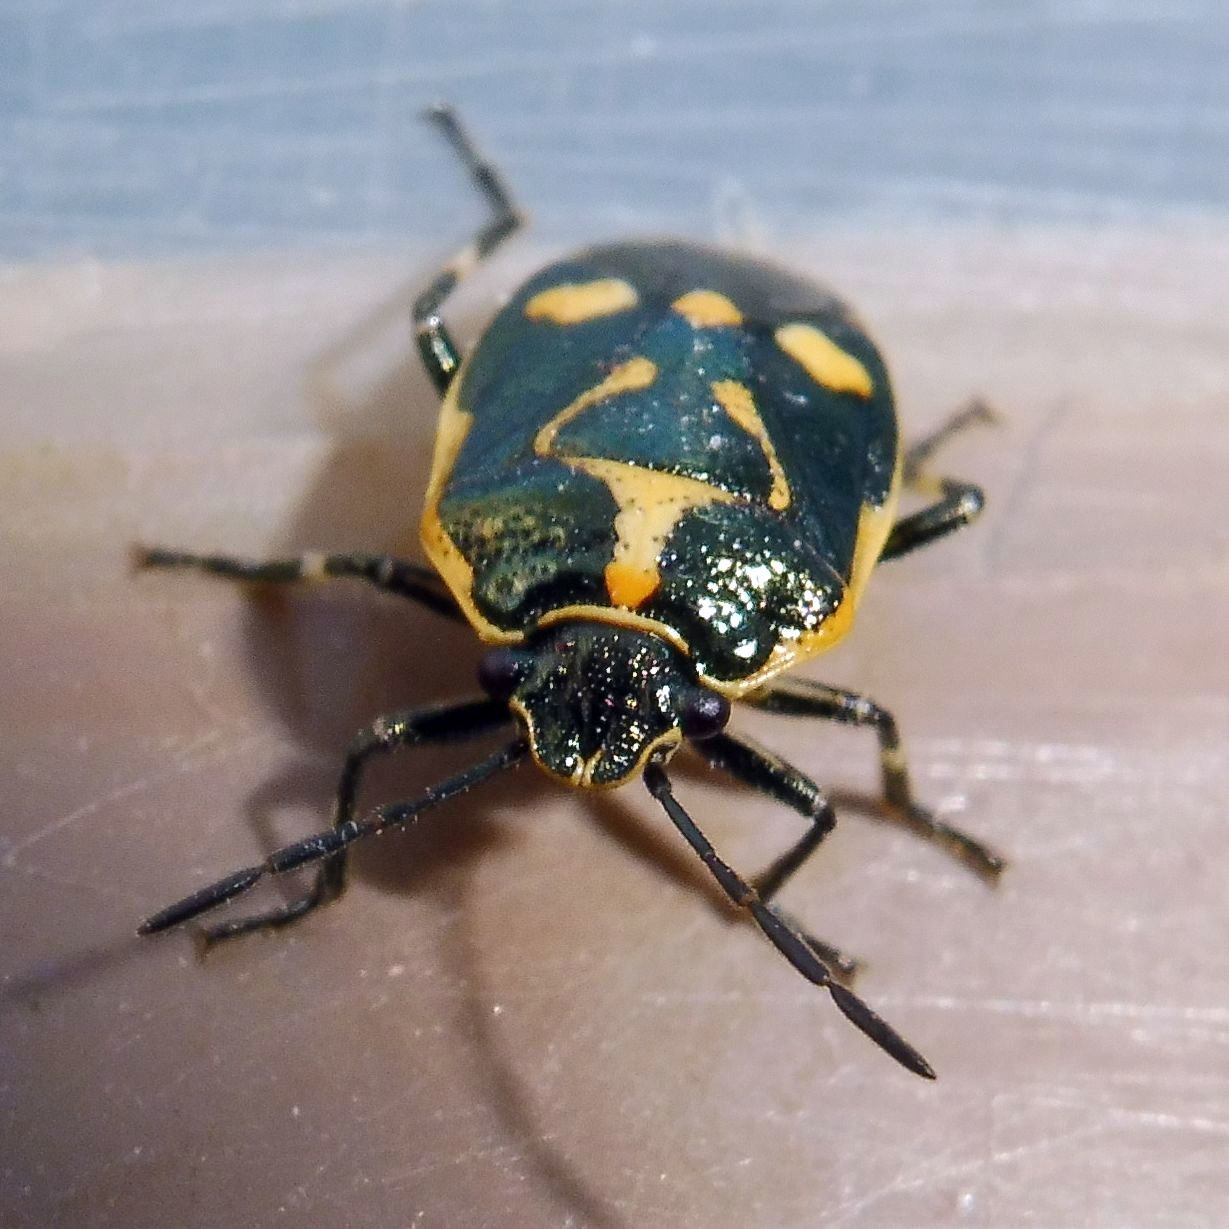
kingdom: Animalia
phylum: Arthropoda
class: Insecta
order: Hemiptera
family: Pentatomidae
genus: Eurydema
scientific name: Eurydema oleracea
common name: Cabbage bug
